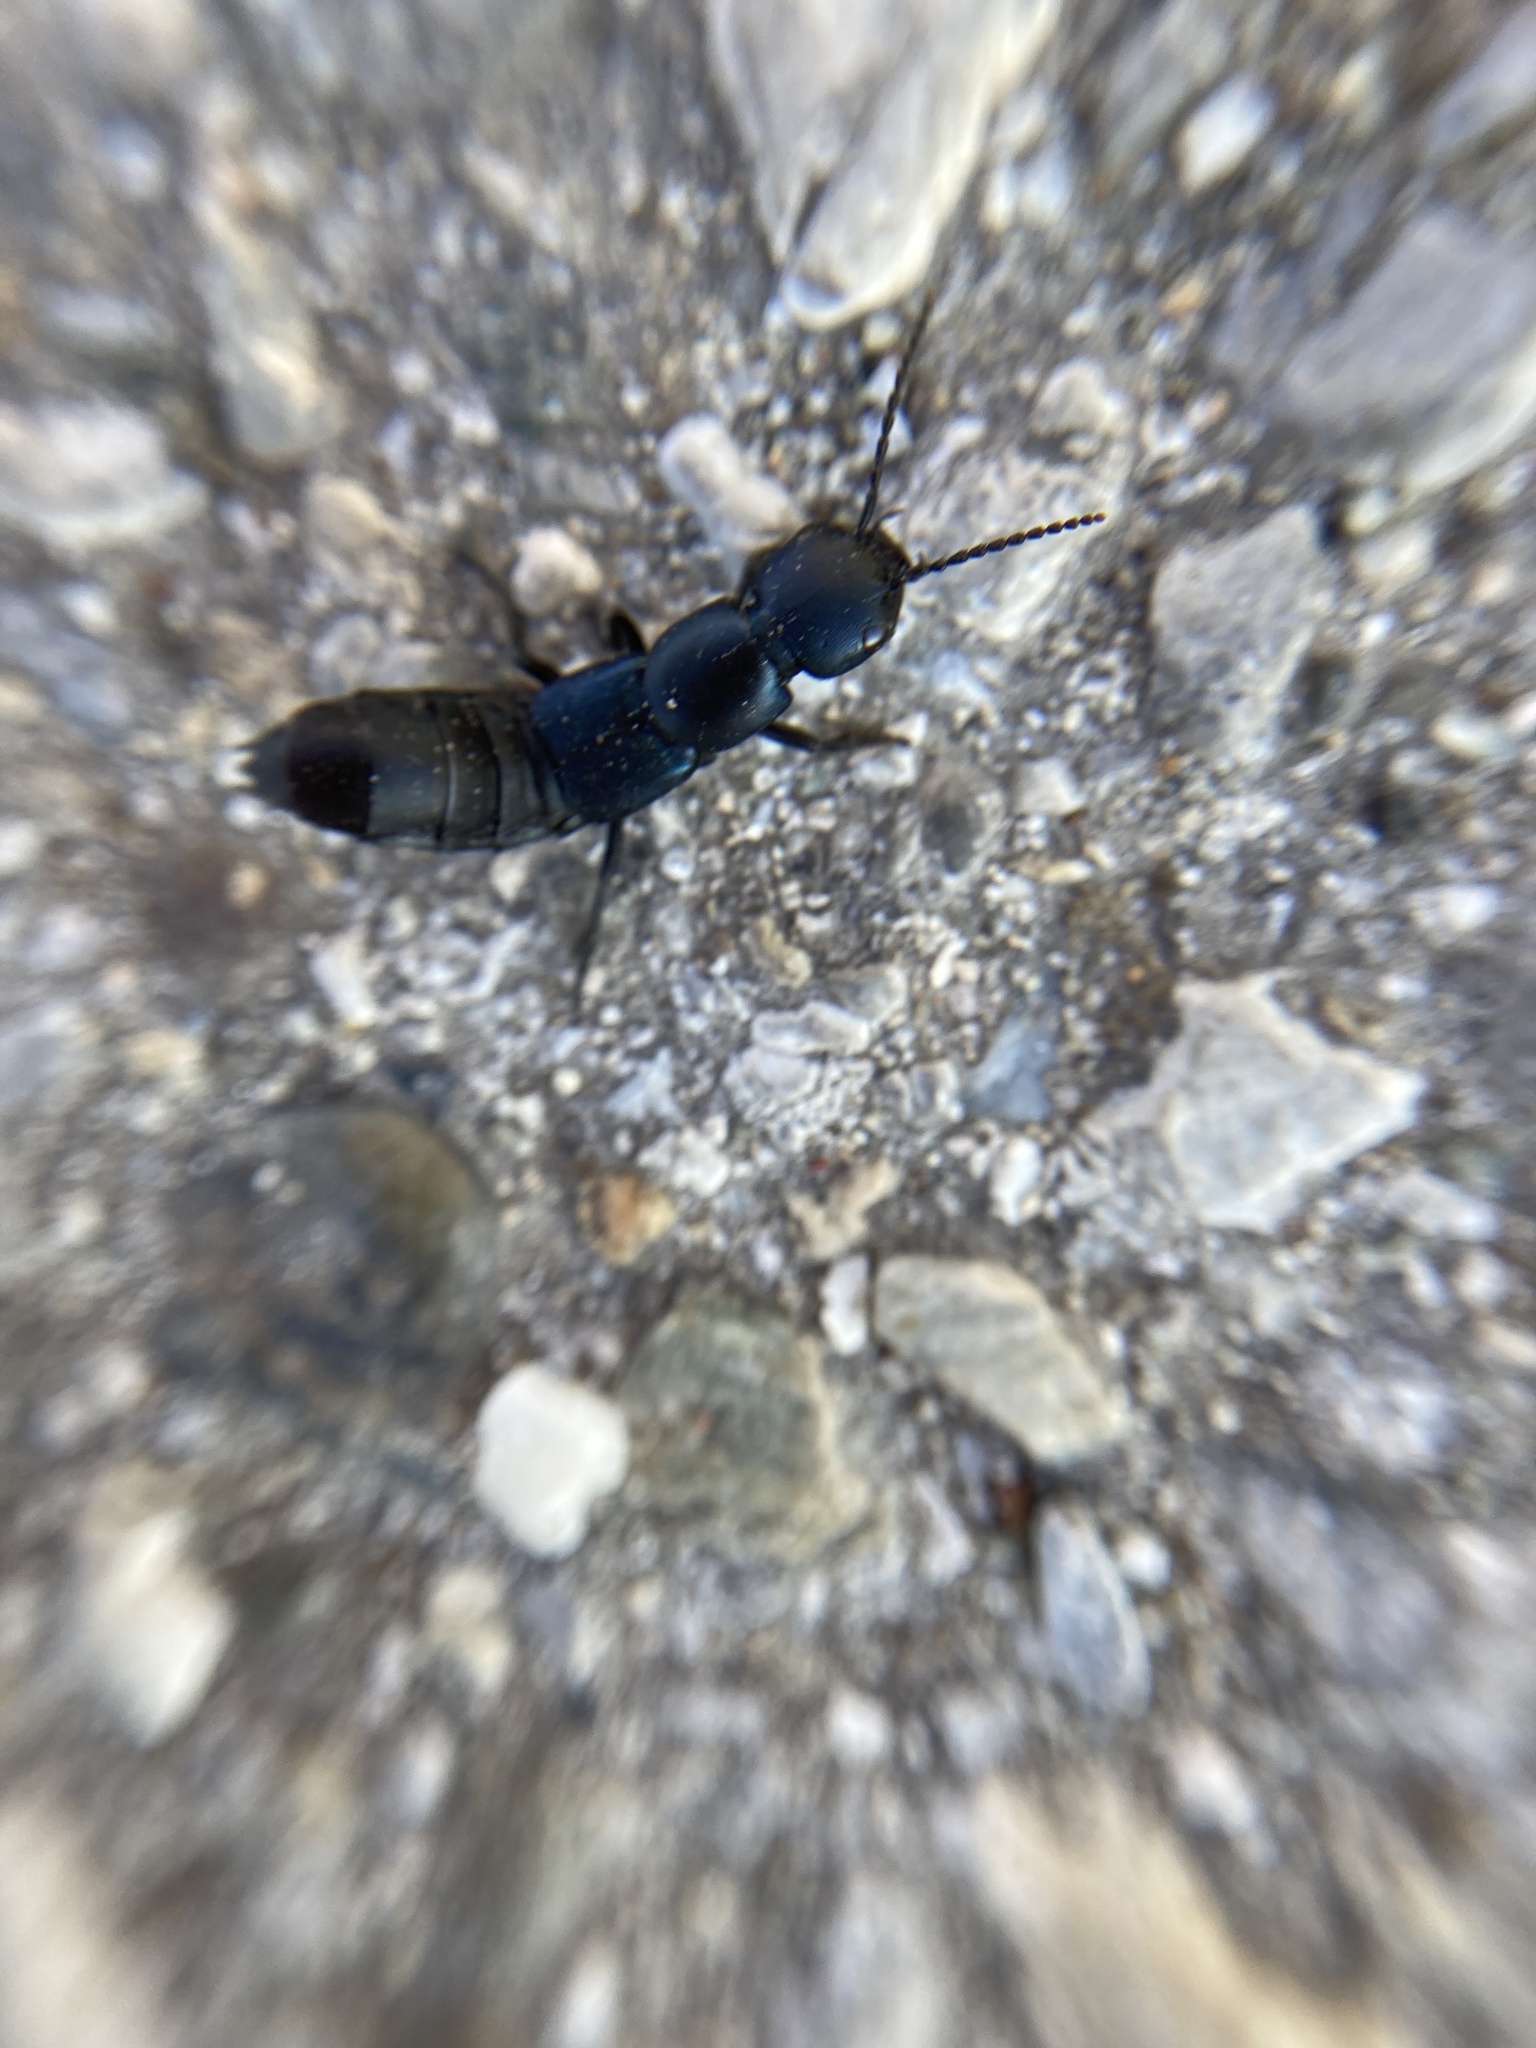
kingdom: Animalia
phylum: Arthropoda
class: Insecta
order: Coleoptera
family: Staphylinidae
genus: Ocypus
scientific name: Ocypus ophthalmicus
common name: Blue rove-beetle
